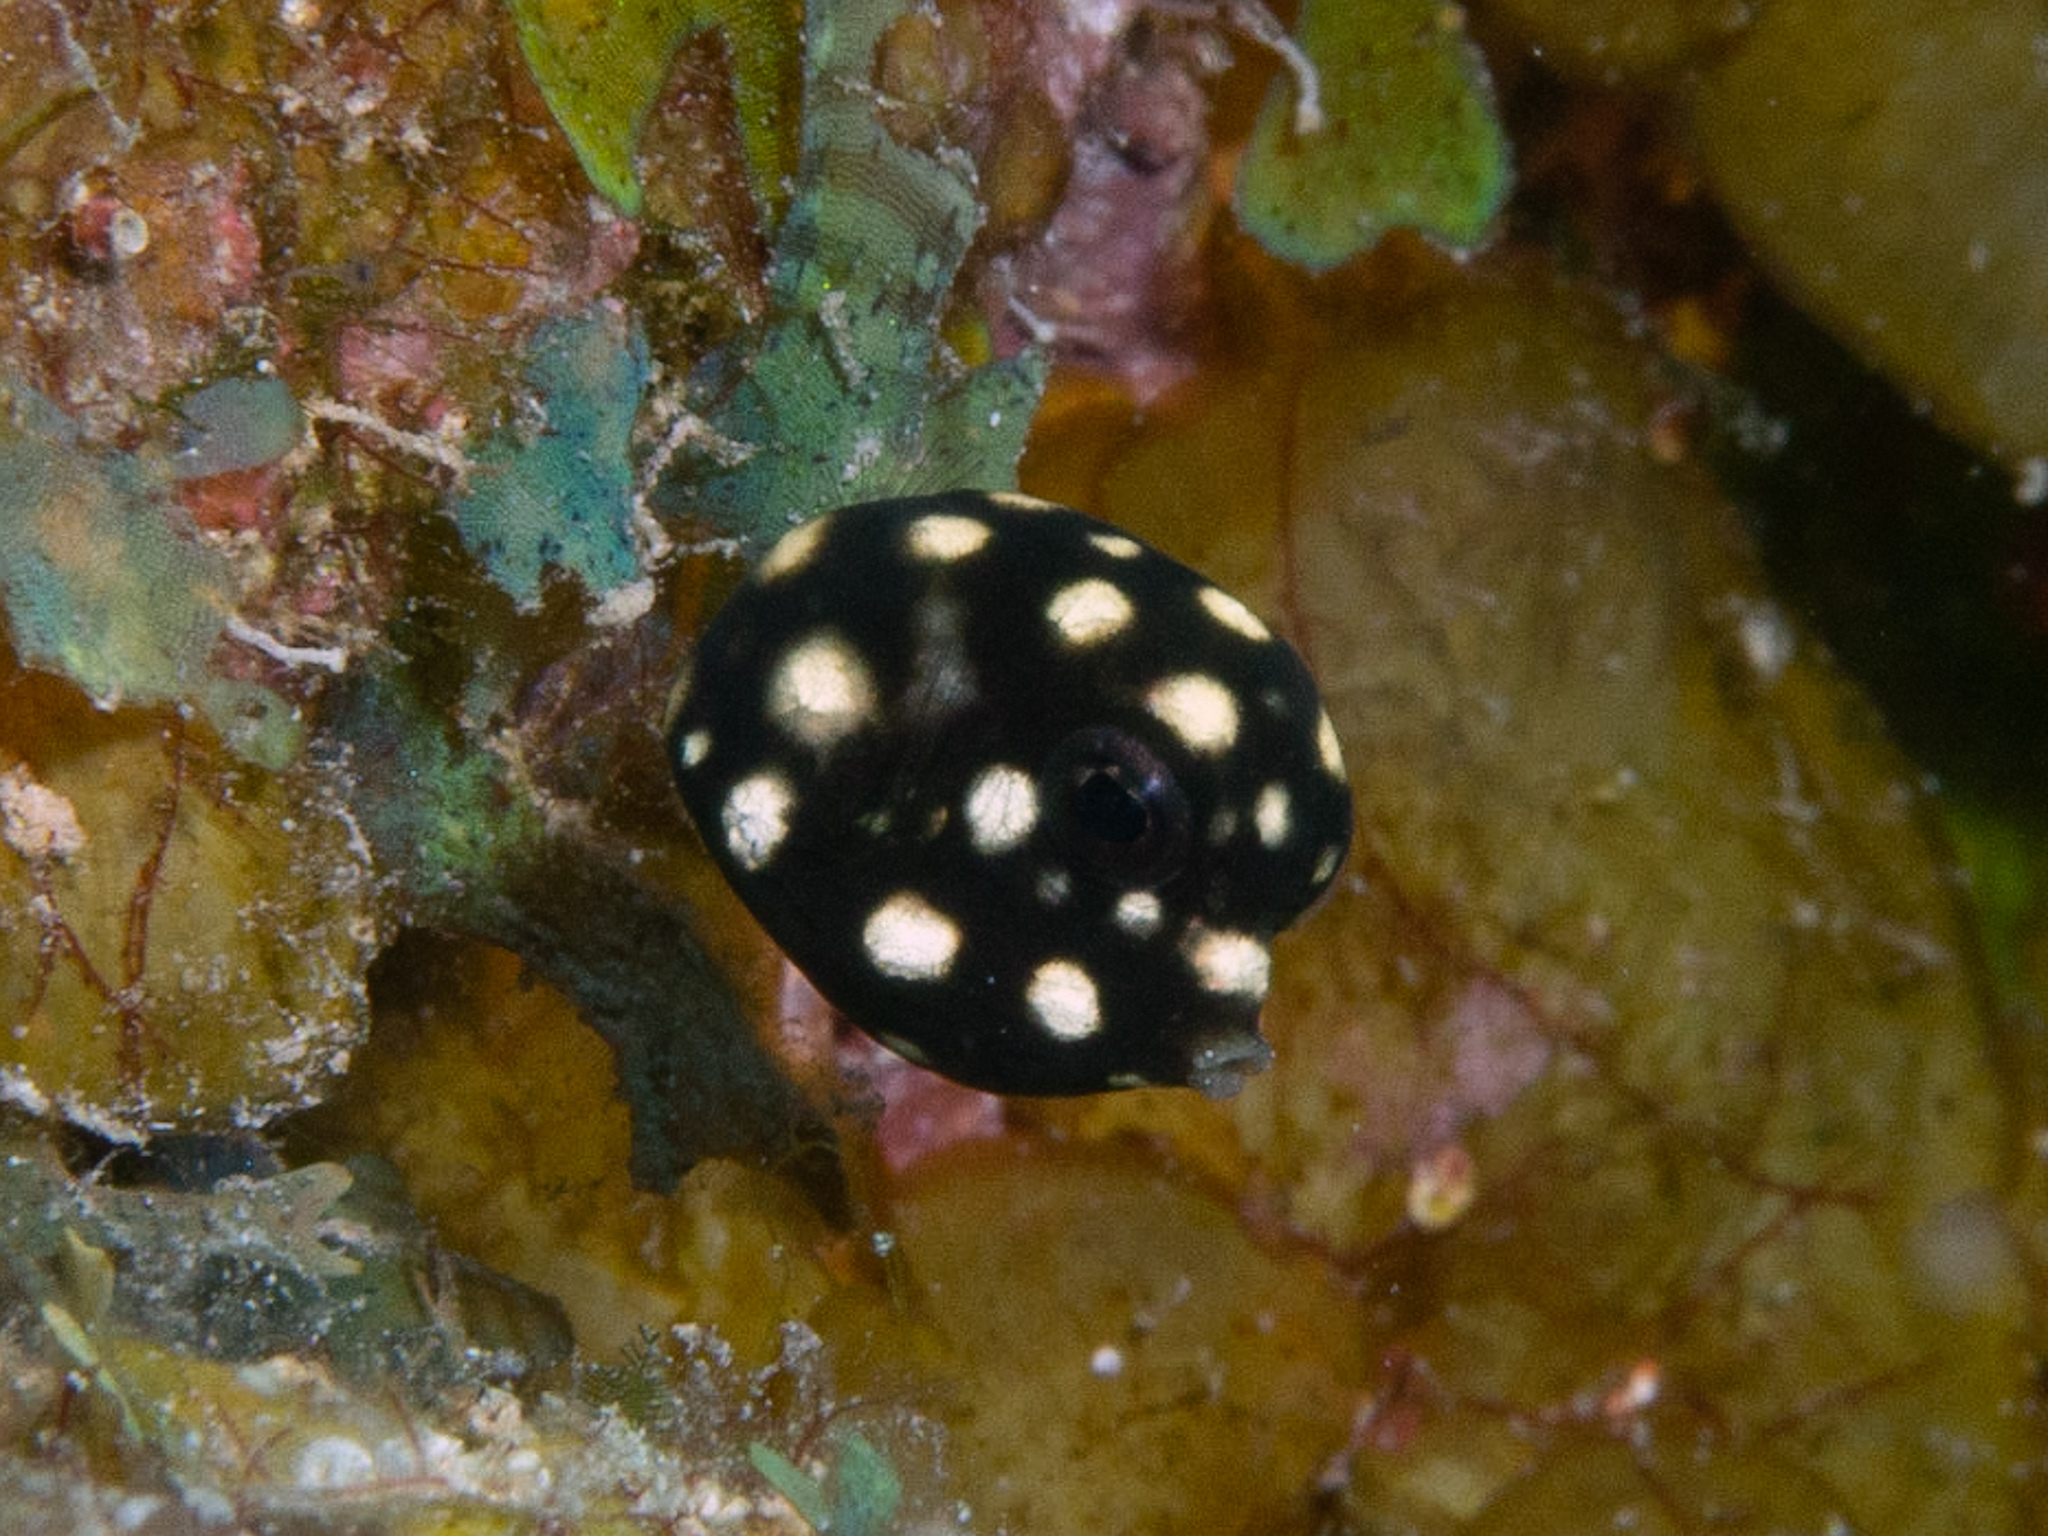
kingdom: Animalia
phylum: Chordata
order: Tetraodontiformes
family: Ostraciidae
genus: Lactophrys
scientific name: Lactophrys triqueter
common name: Smooth trunkfish
